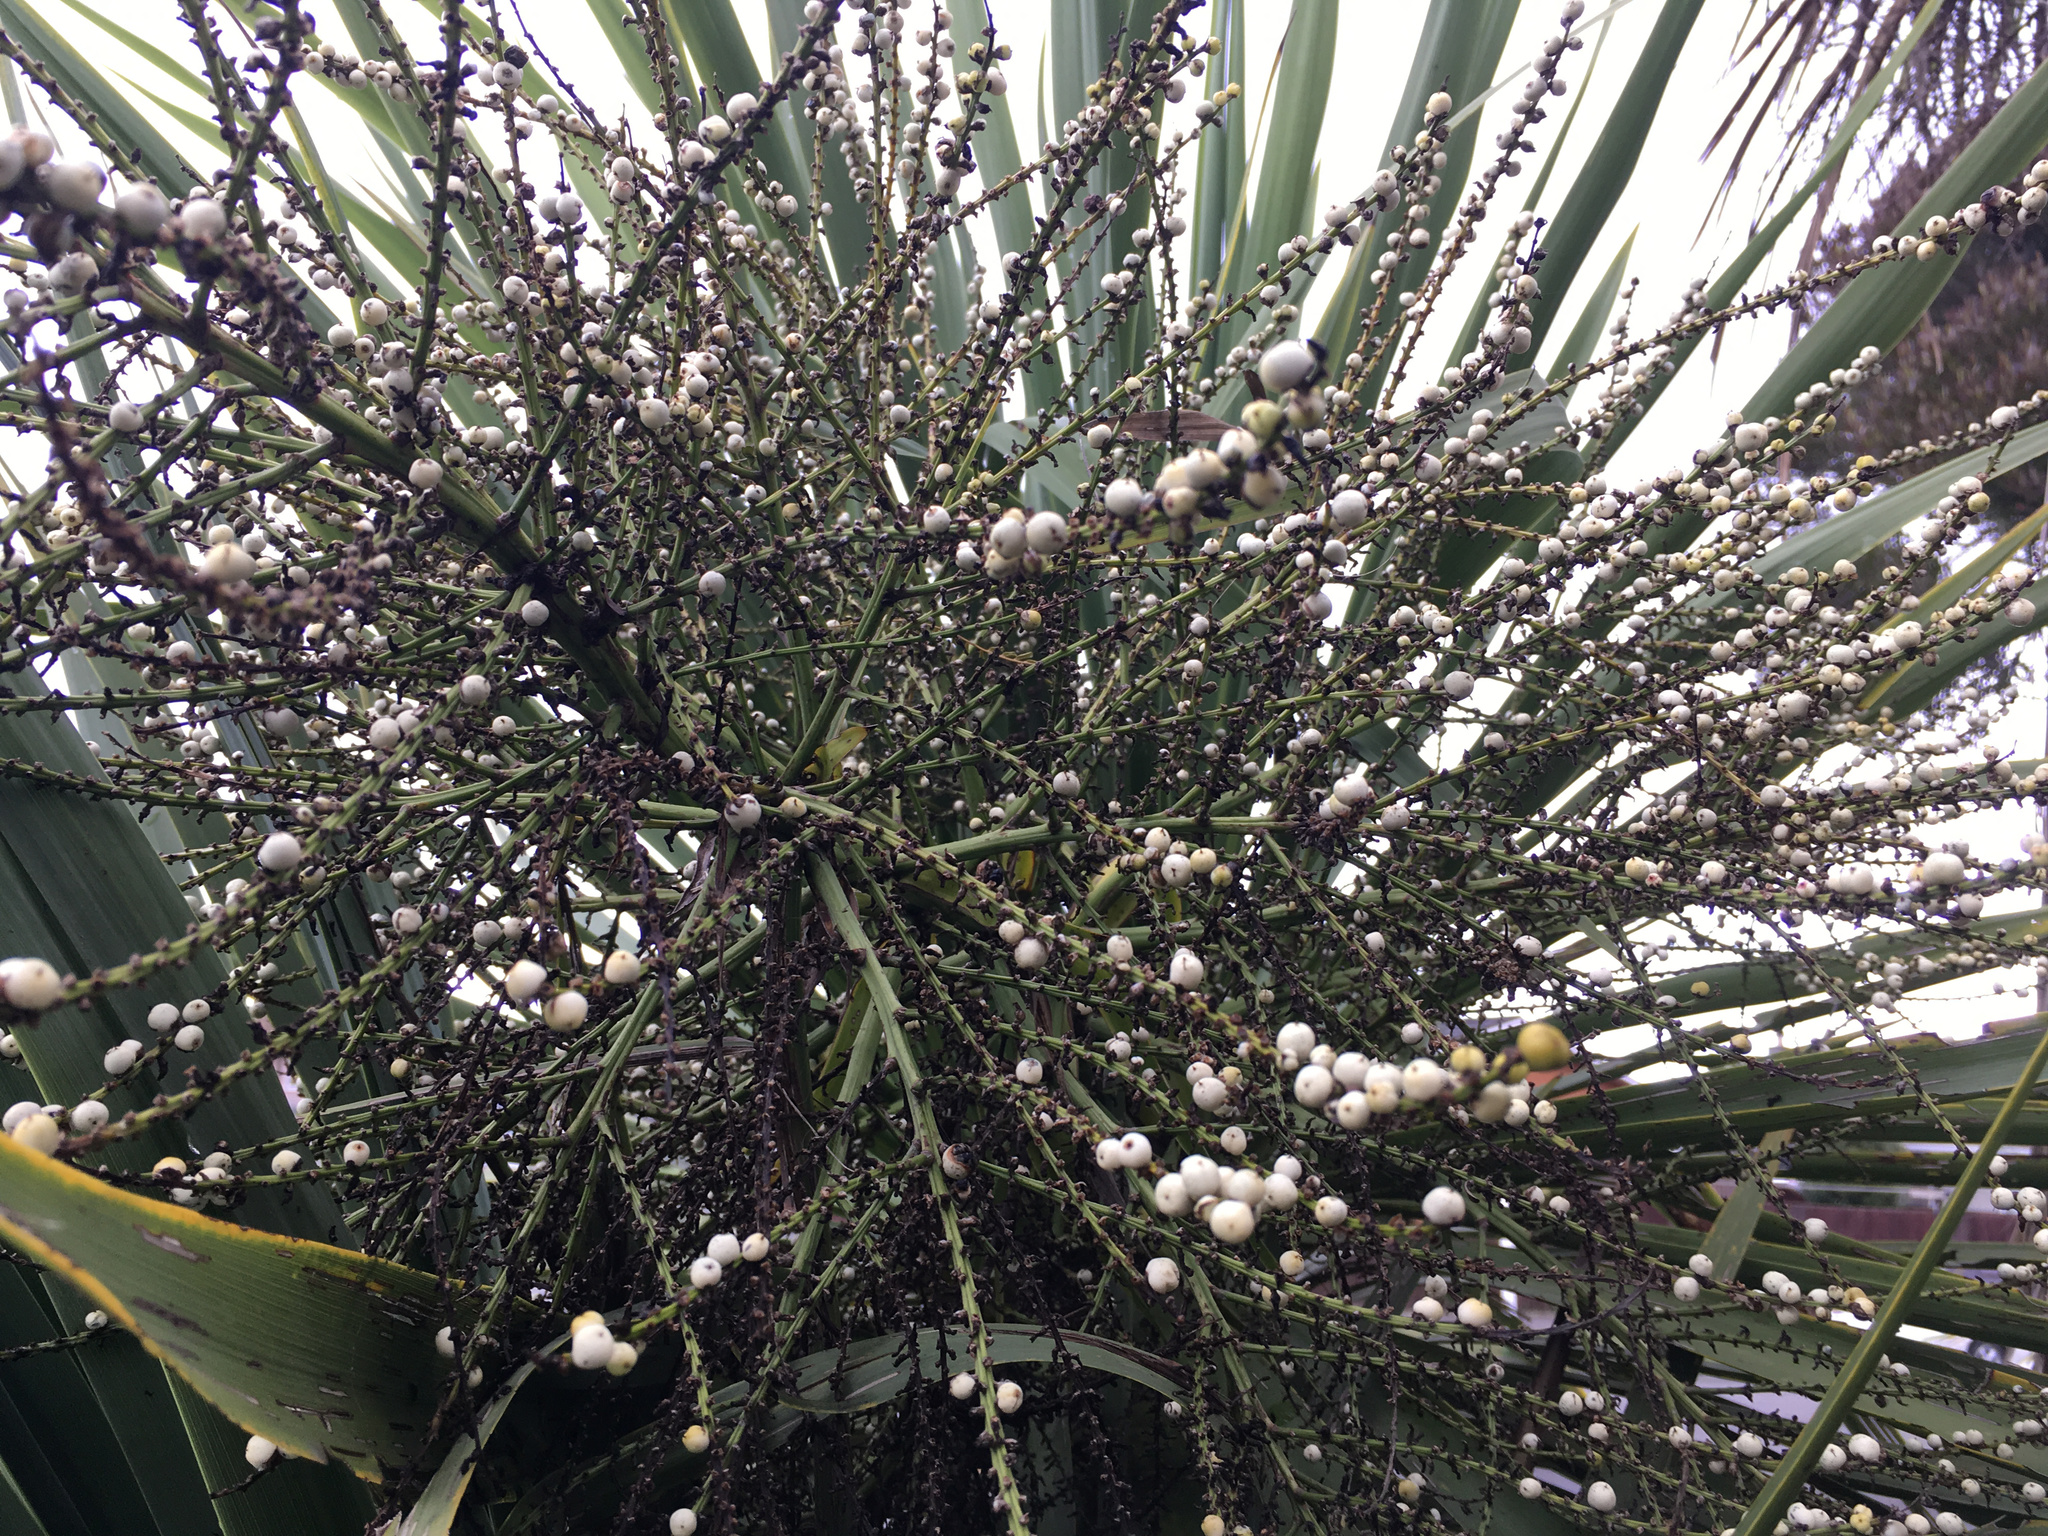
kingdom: Plantae
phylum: Tracheophyta
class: Liliopsida
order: Asparagales
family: Asparagaceae
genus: Cordyline
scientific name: Cordyline australis
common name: Cabbage-palm
